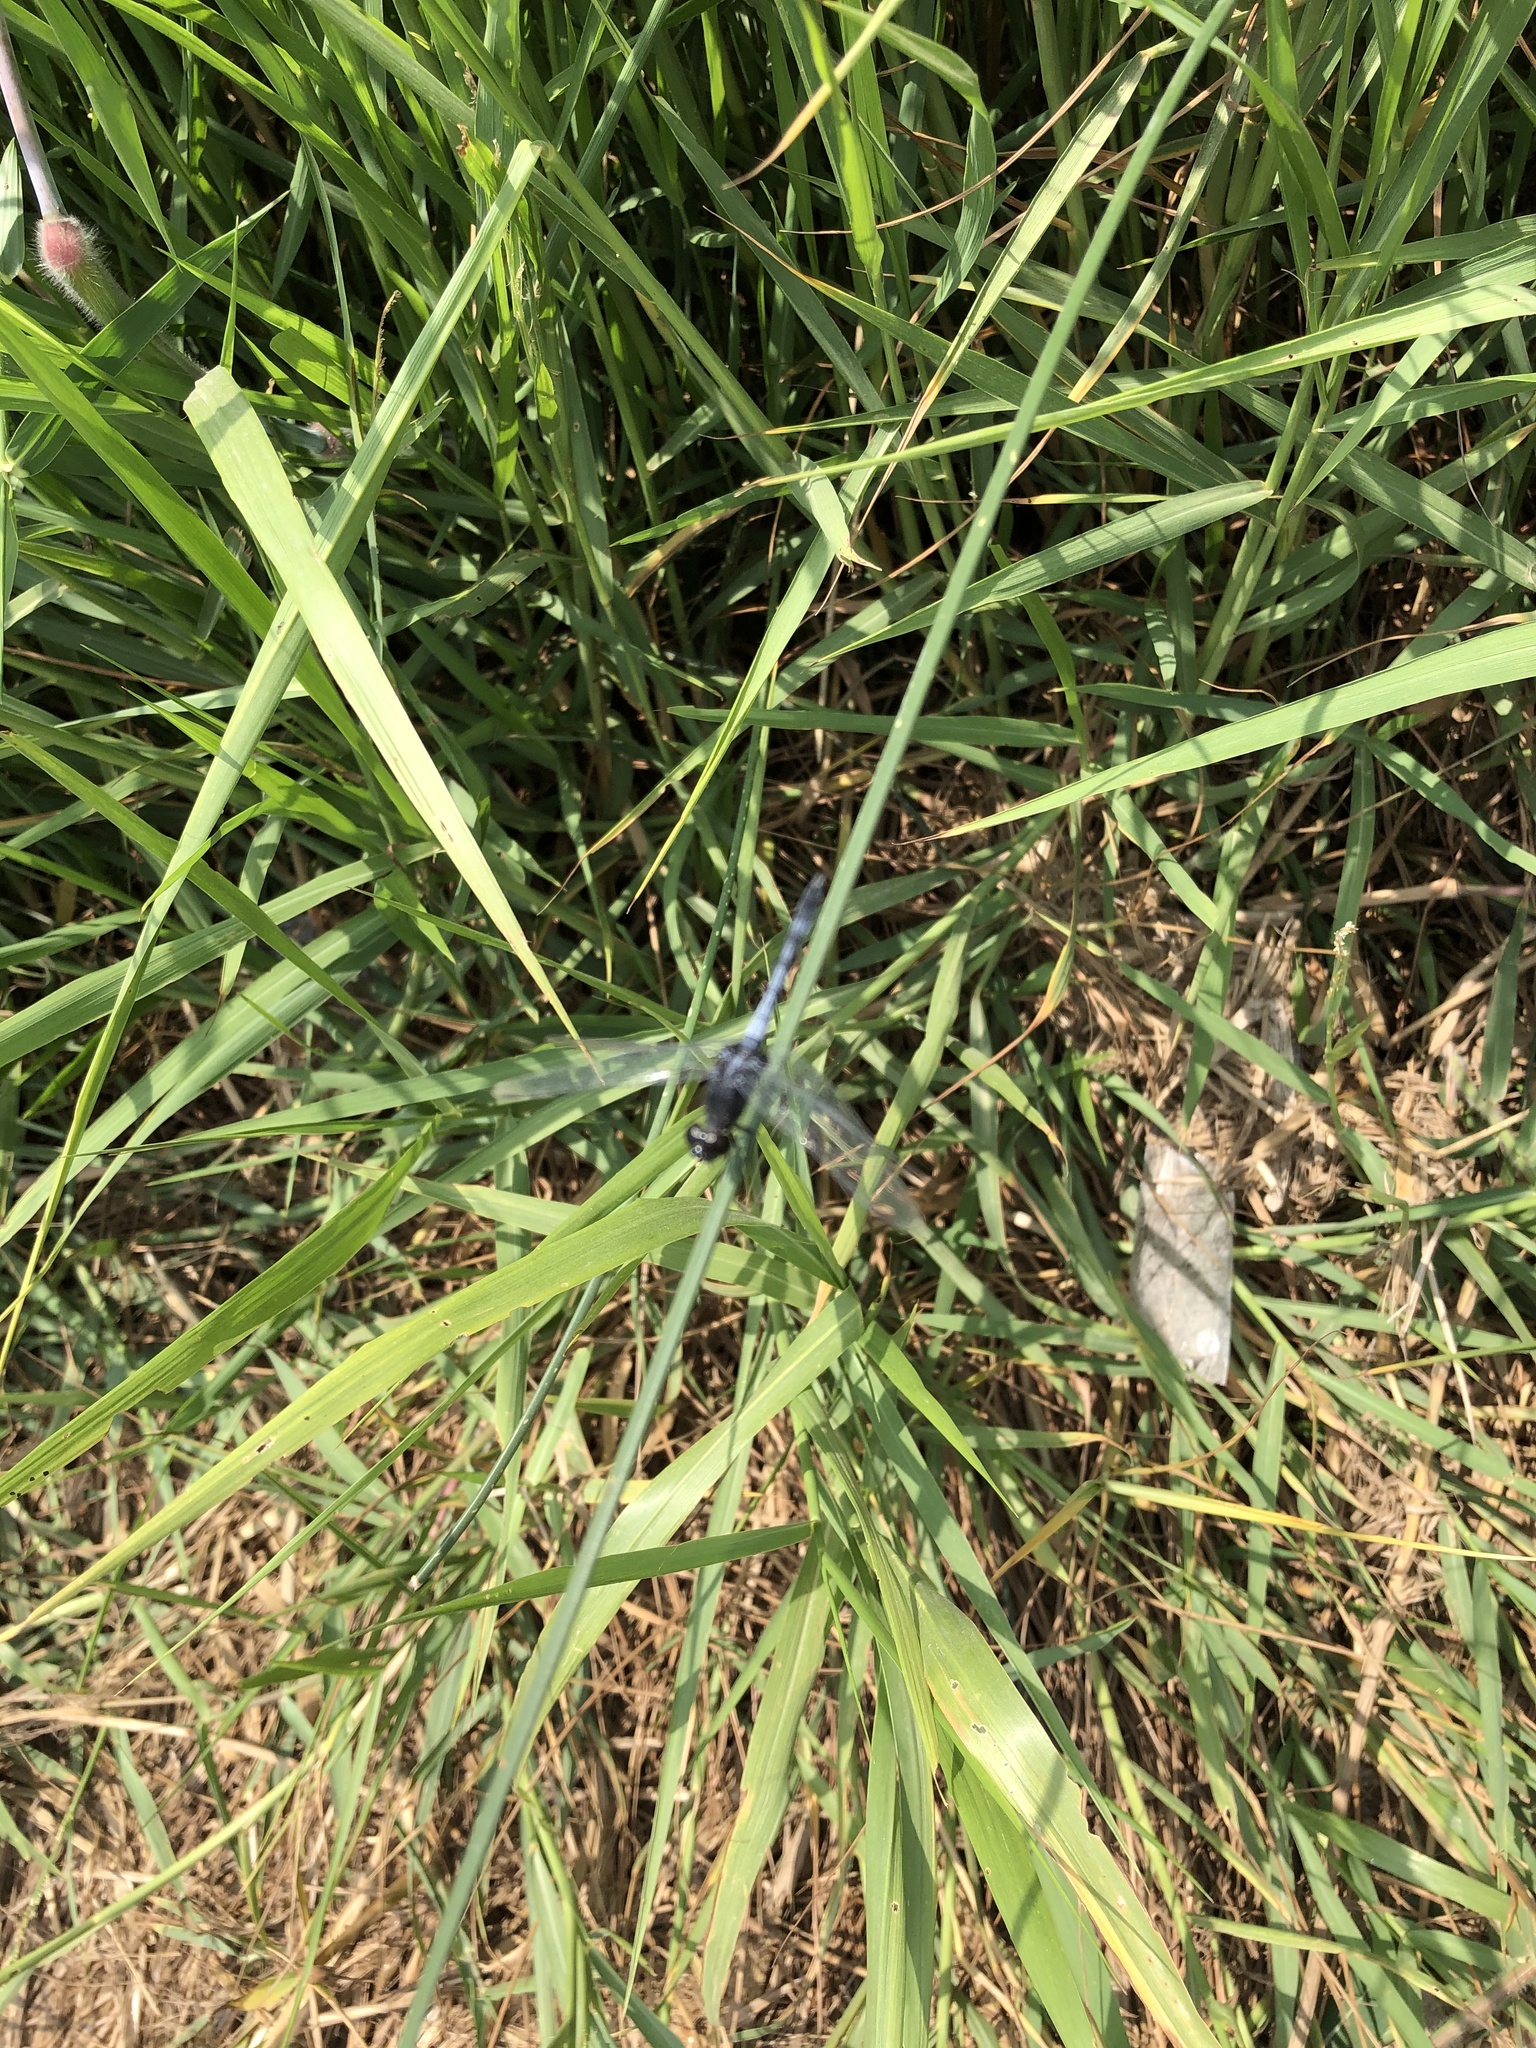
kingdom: Animalia
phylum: Arthropoda
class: Insecta
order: Odonata
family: Libellulidae
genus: Erythrodiplax
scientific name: Erythrodiplax cleopatra
